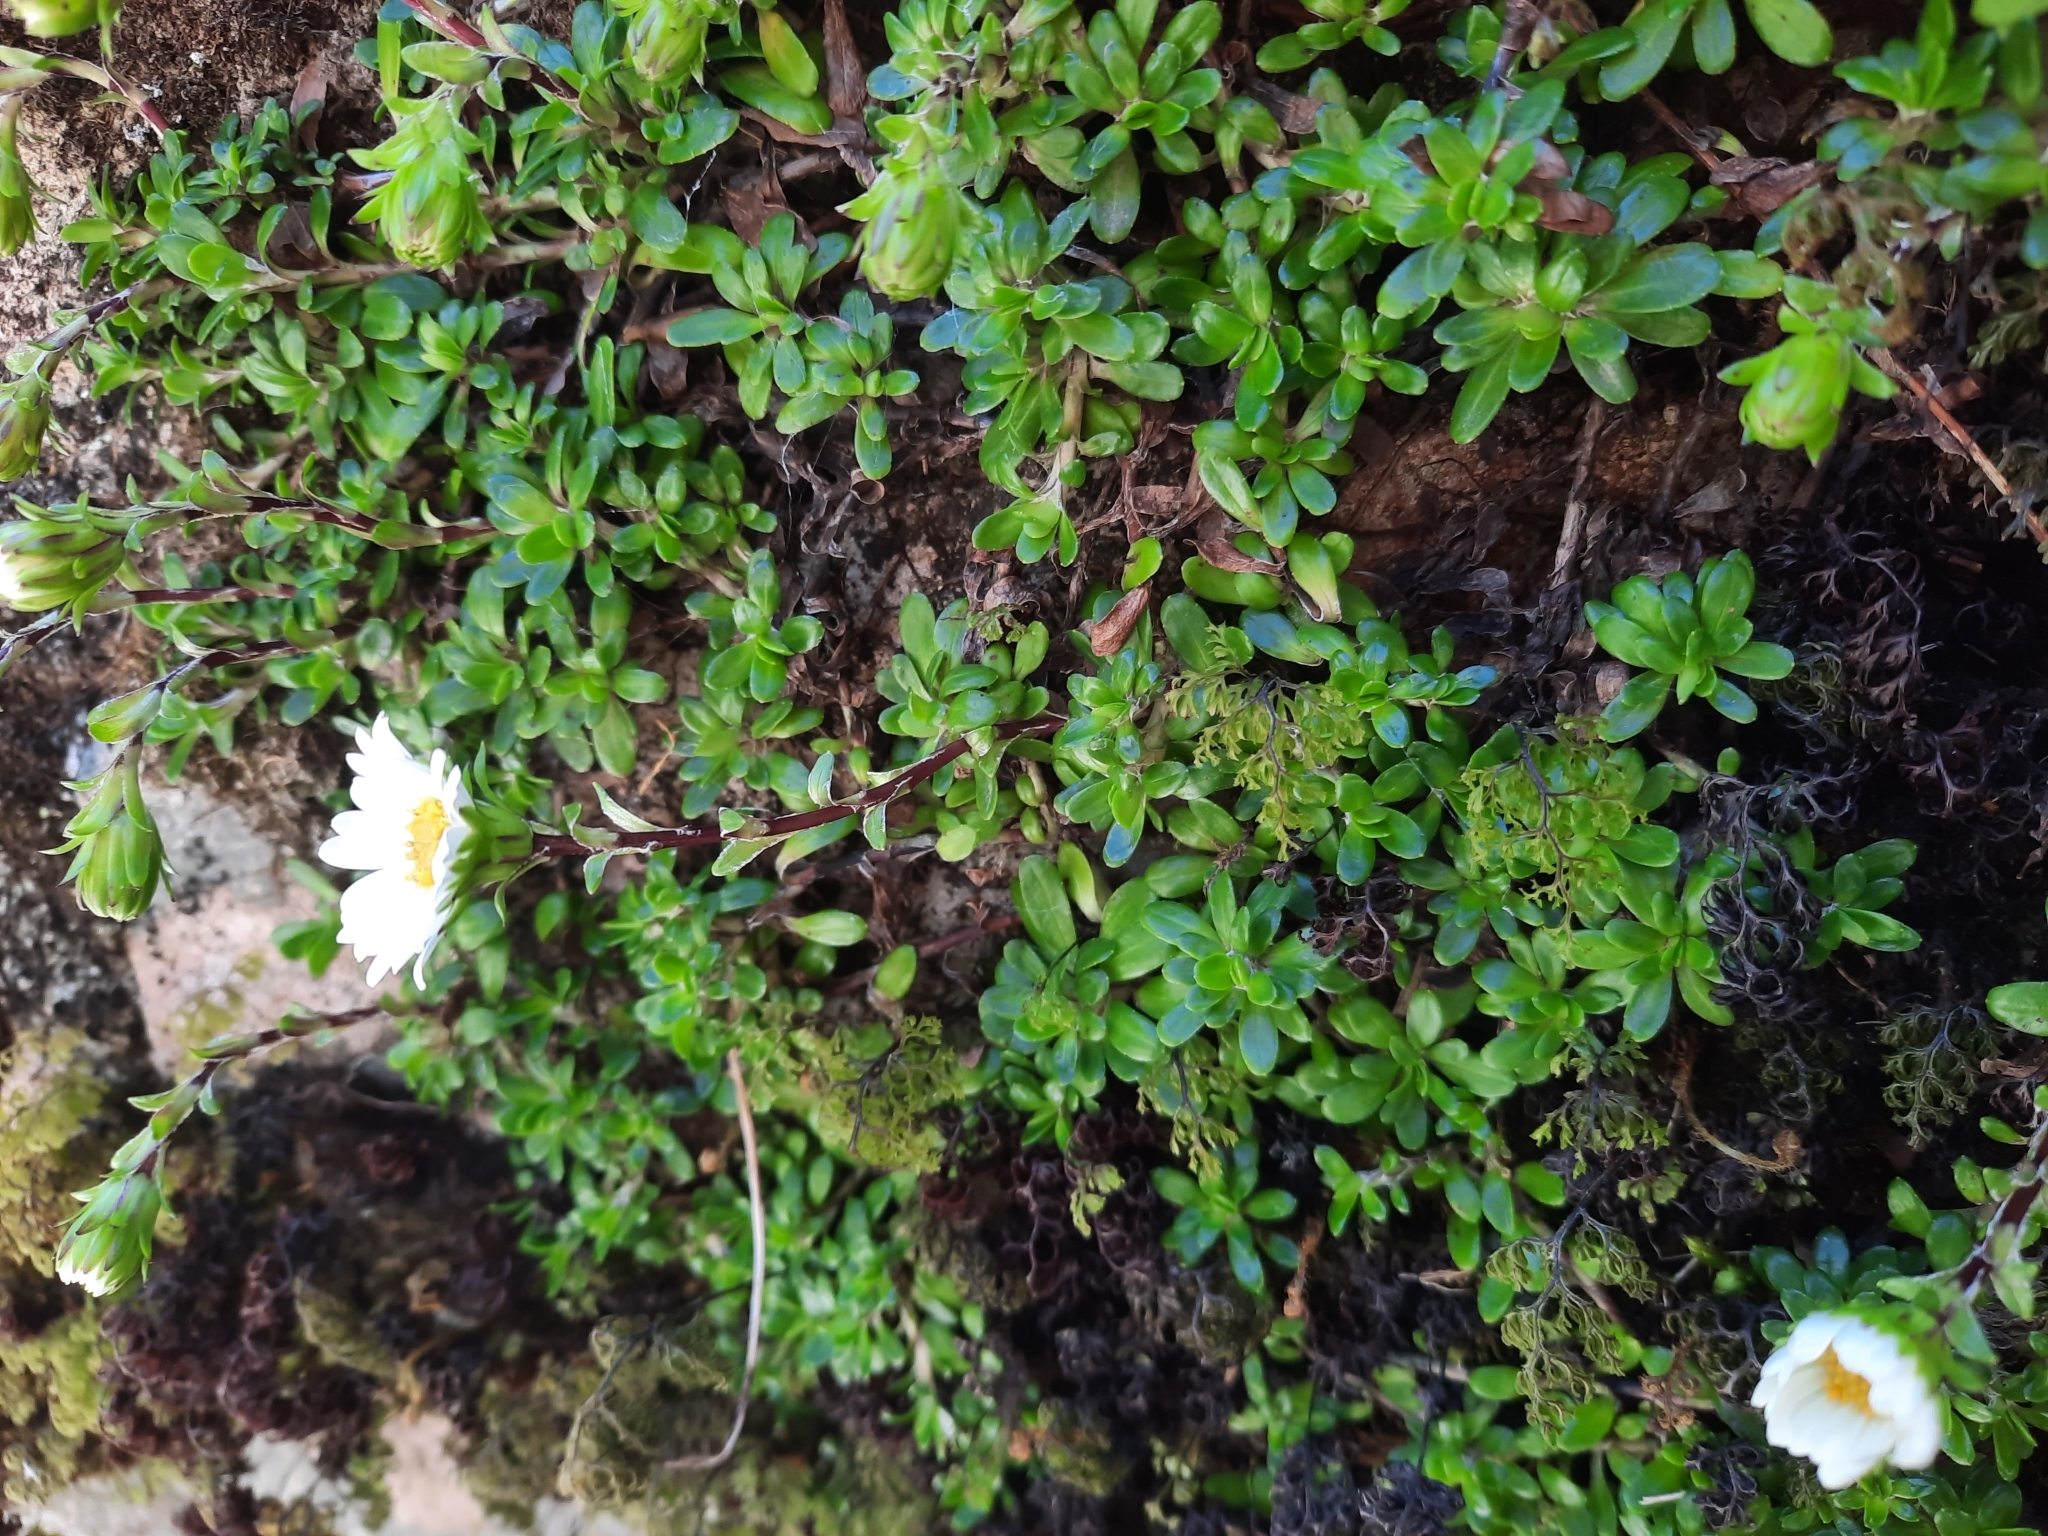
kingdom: Plantae
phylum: Tracheophyta
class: Magnoliopsida
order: Asterales
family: Asteraceae
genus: Celmisia
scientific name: Celmisia bellidioides
